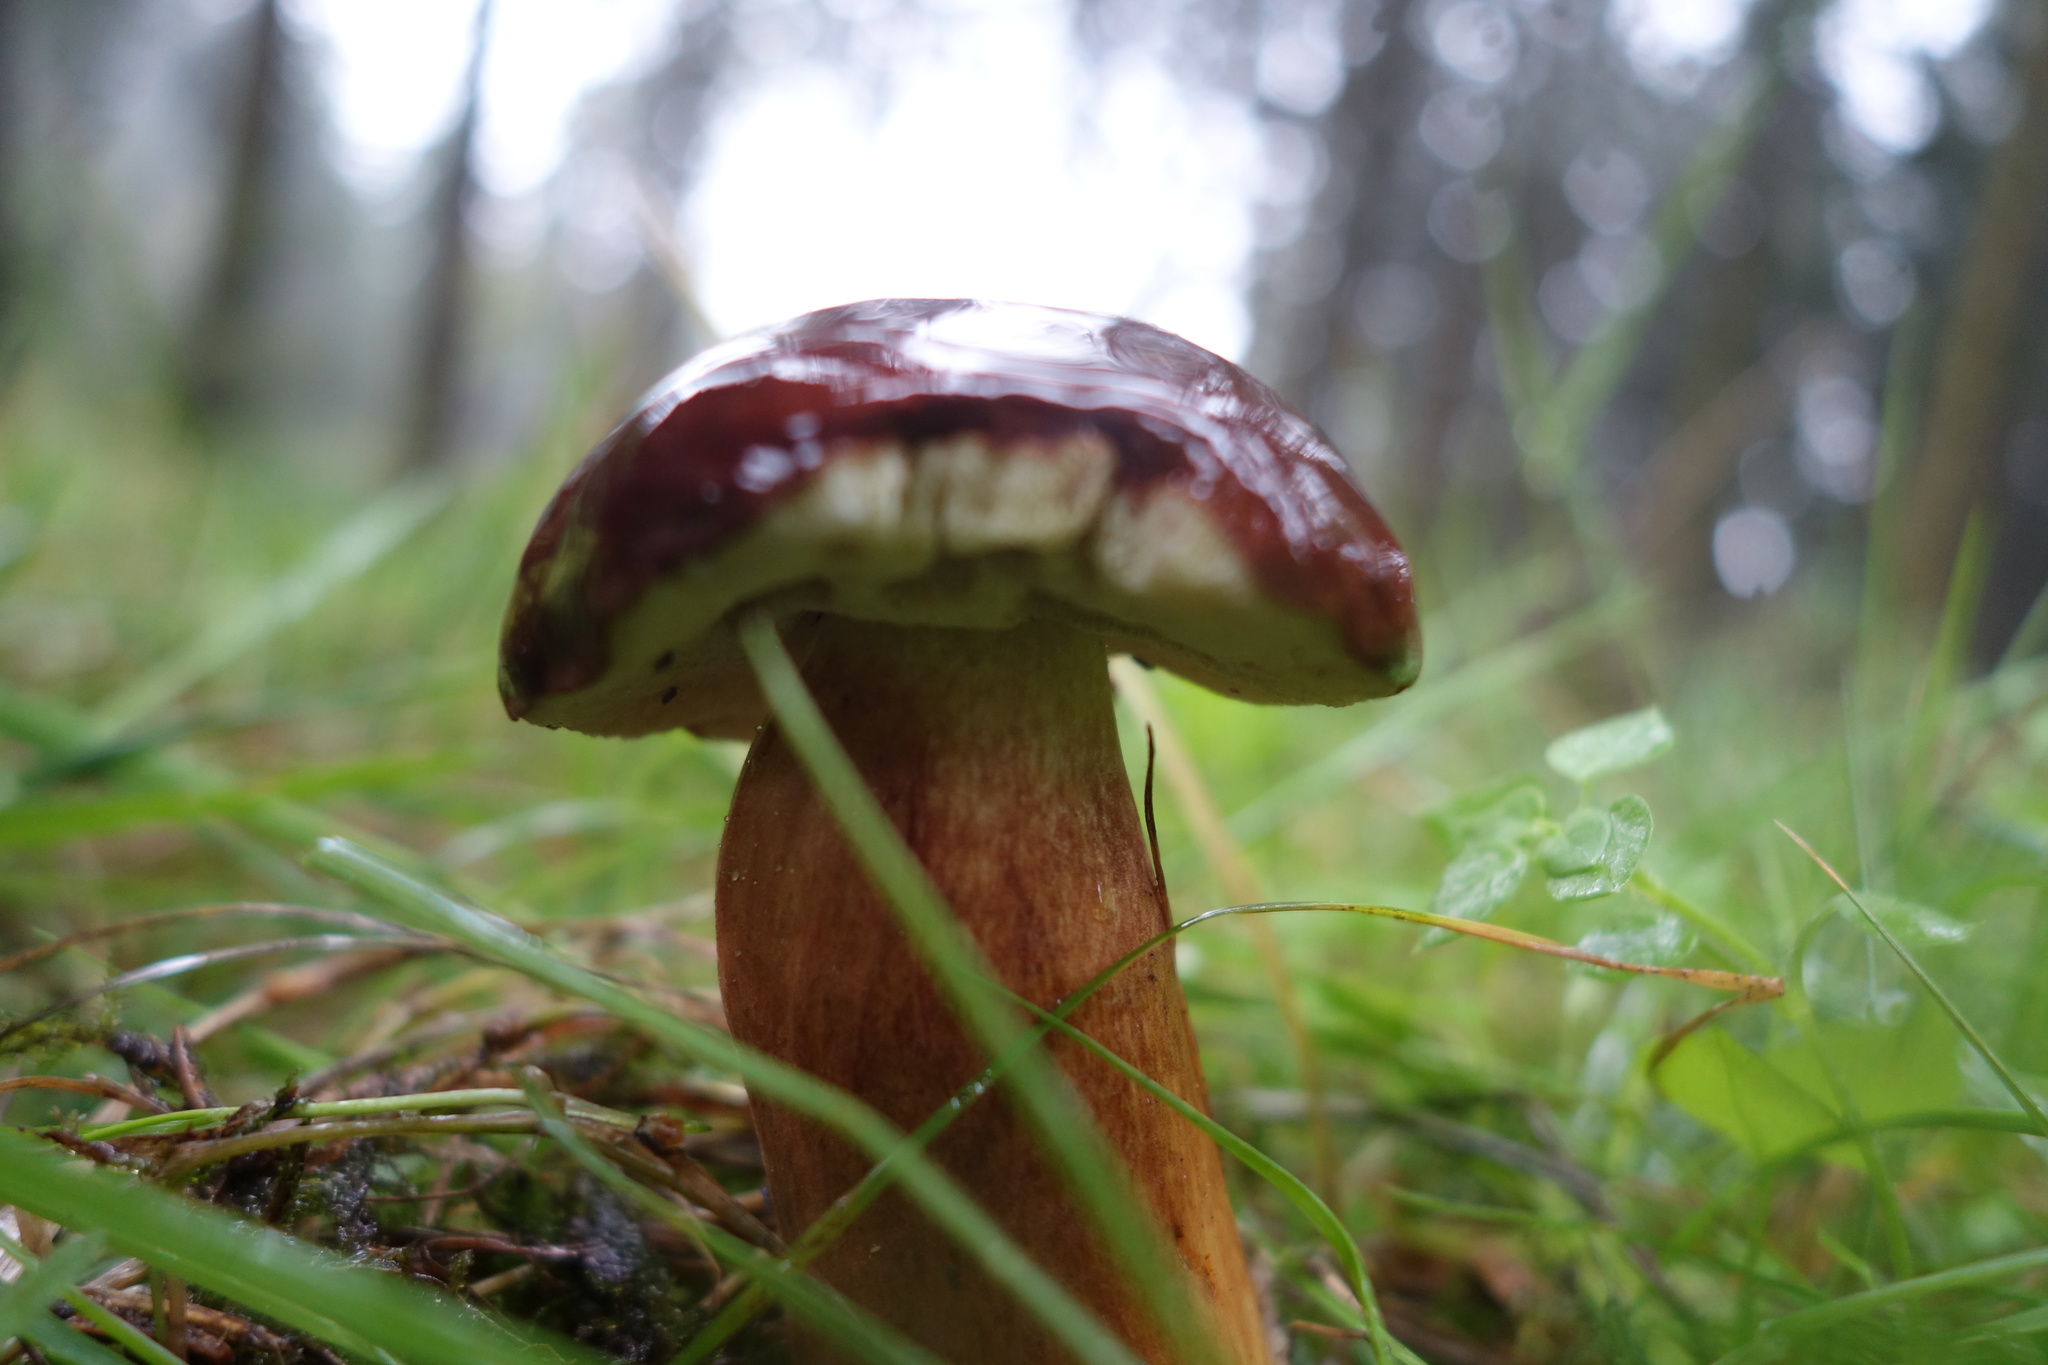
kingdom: Fungi
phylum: Basidiomycota
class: Agaricomycetes
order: Boletales
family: Boletaceae
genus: Imleria
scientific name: Imleria badia
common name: Bay bolete
